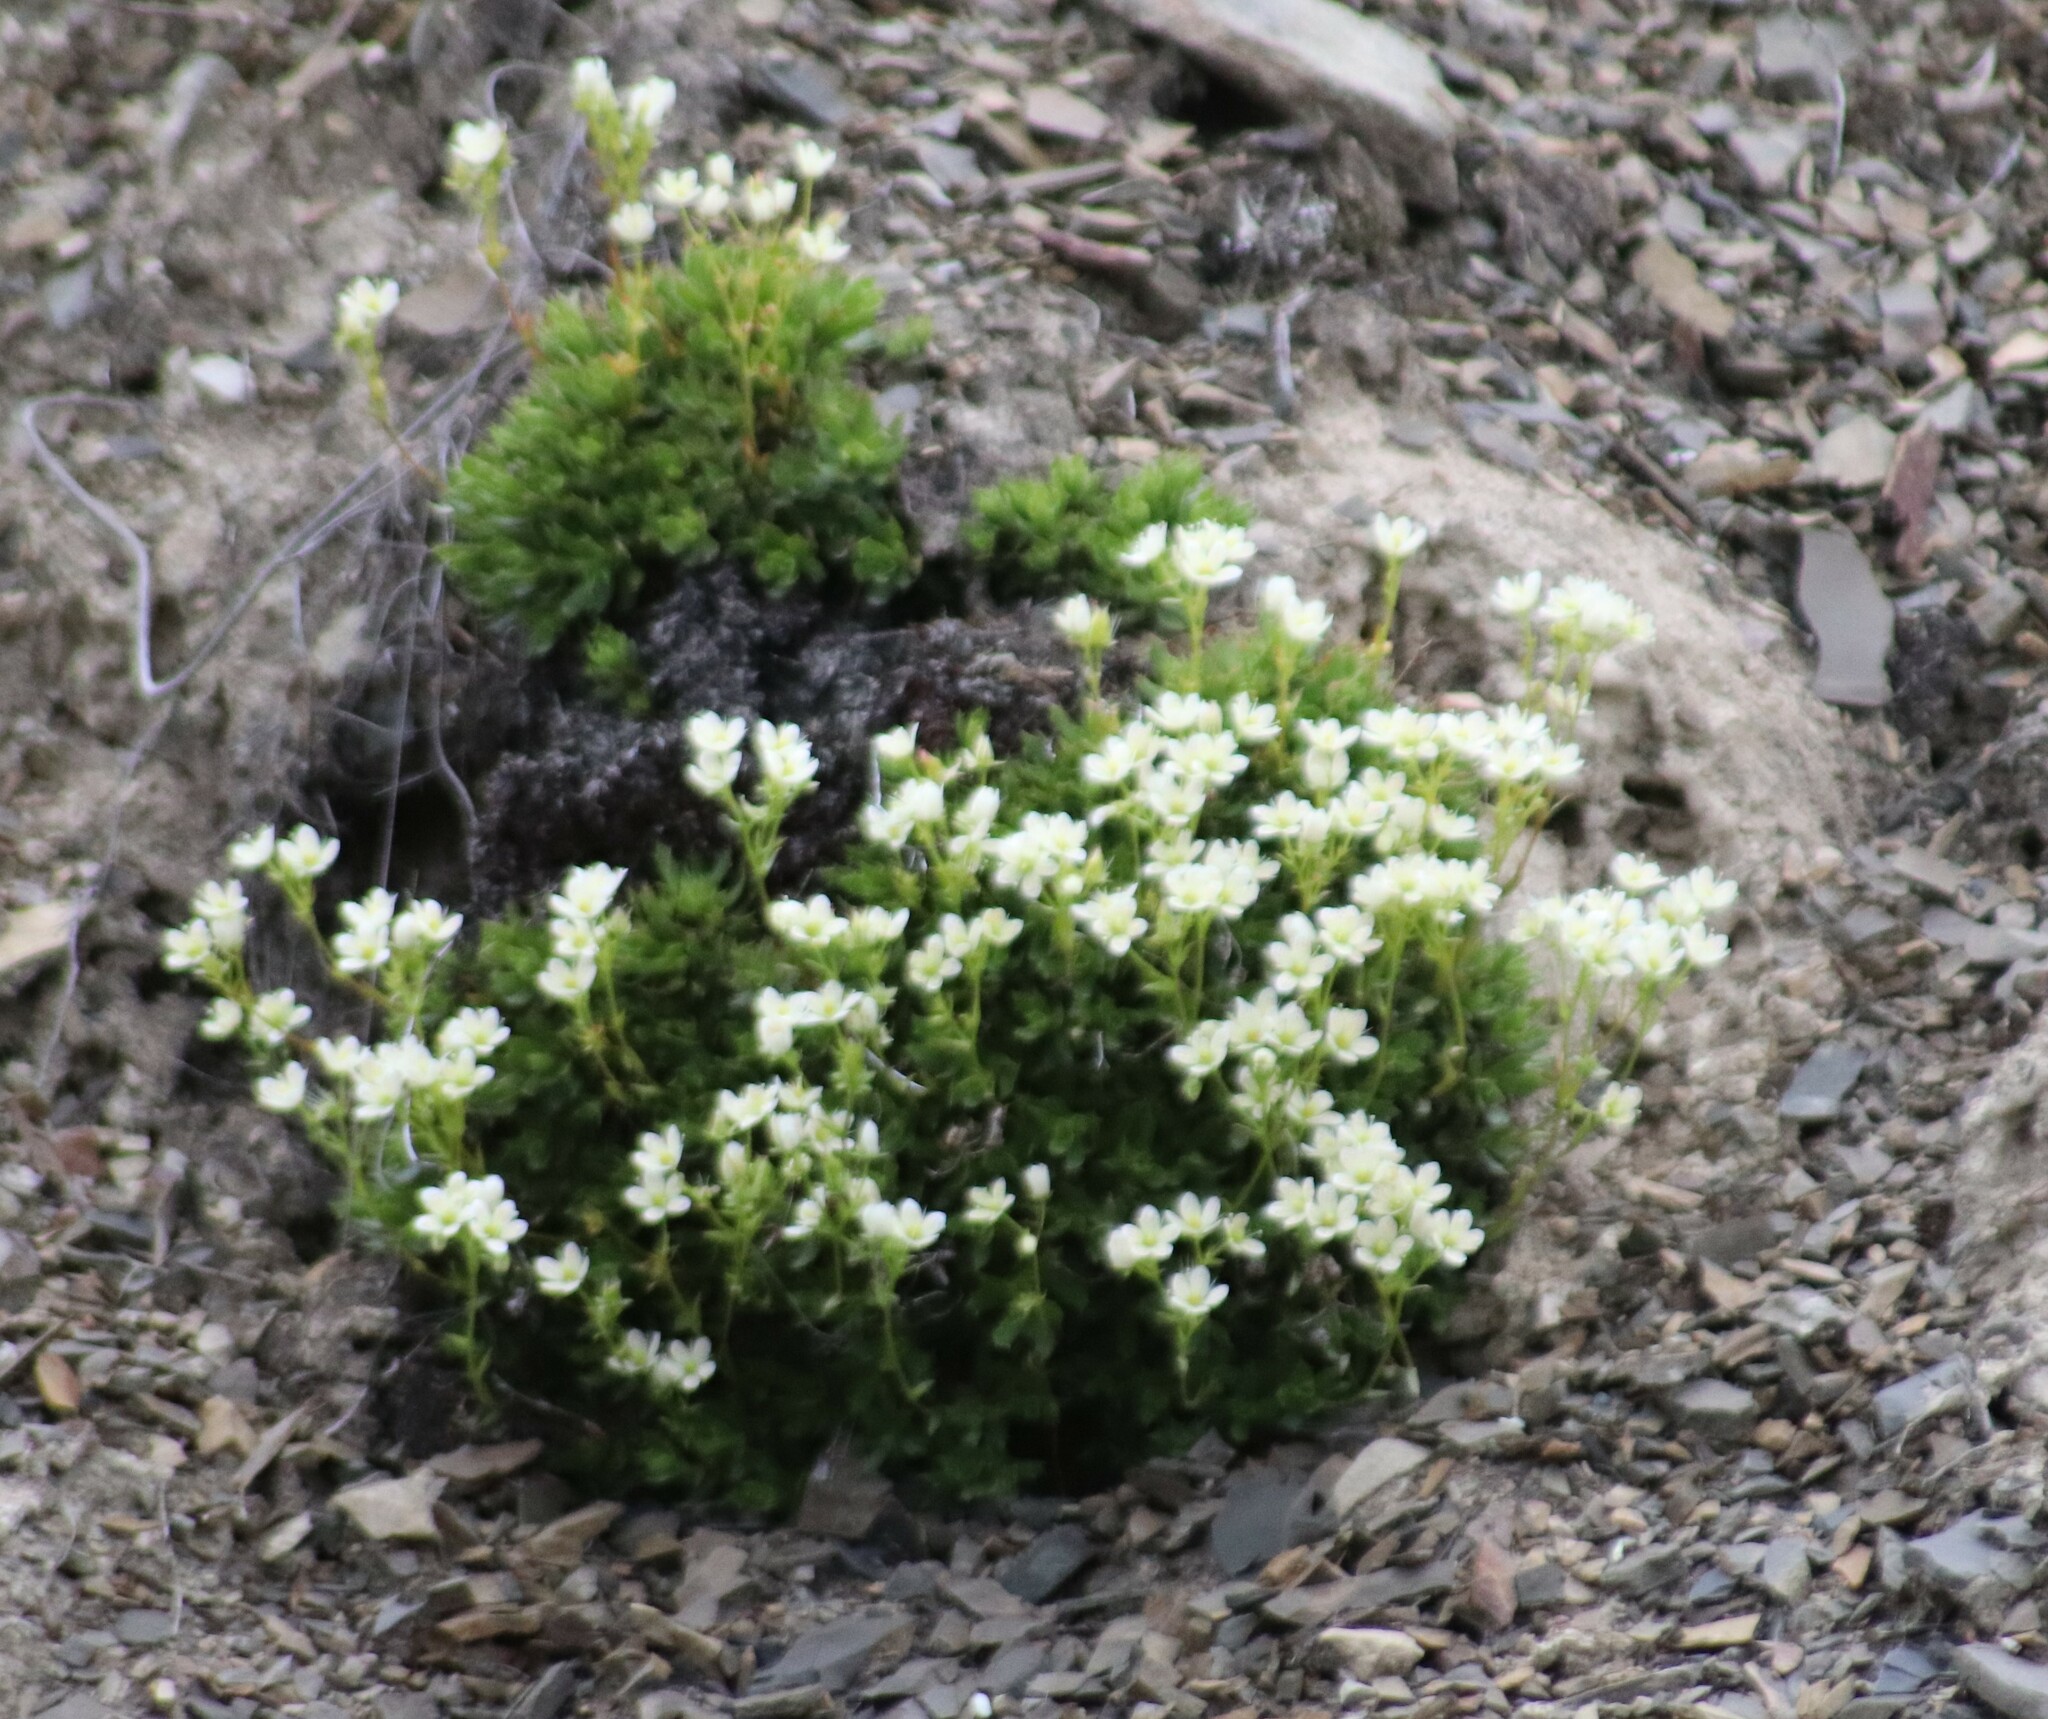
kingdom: Plantae
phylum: Tracheophyta
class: Magnoliopsida
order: Saxifragales
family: Saxifragaceae
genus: Saxifraga
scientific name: Saxifraga tricuspidata
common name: Prickly saxifrage
